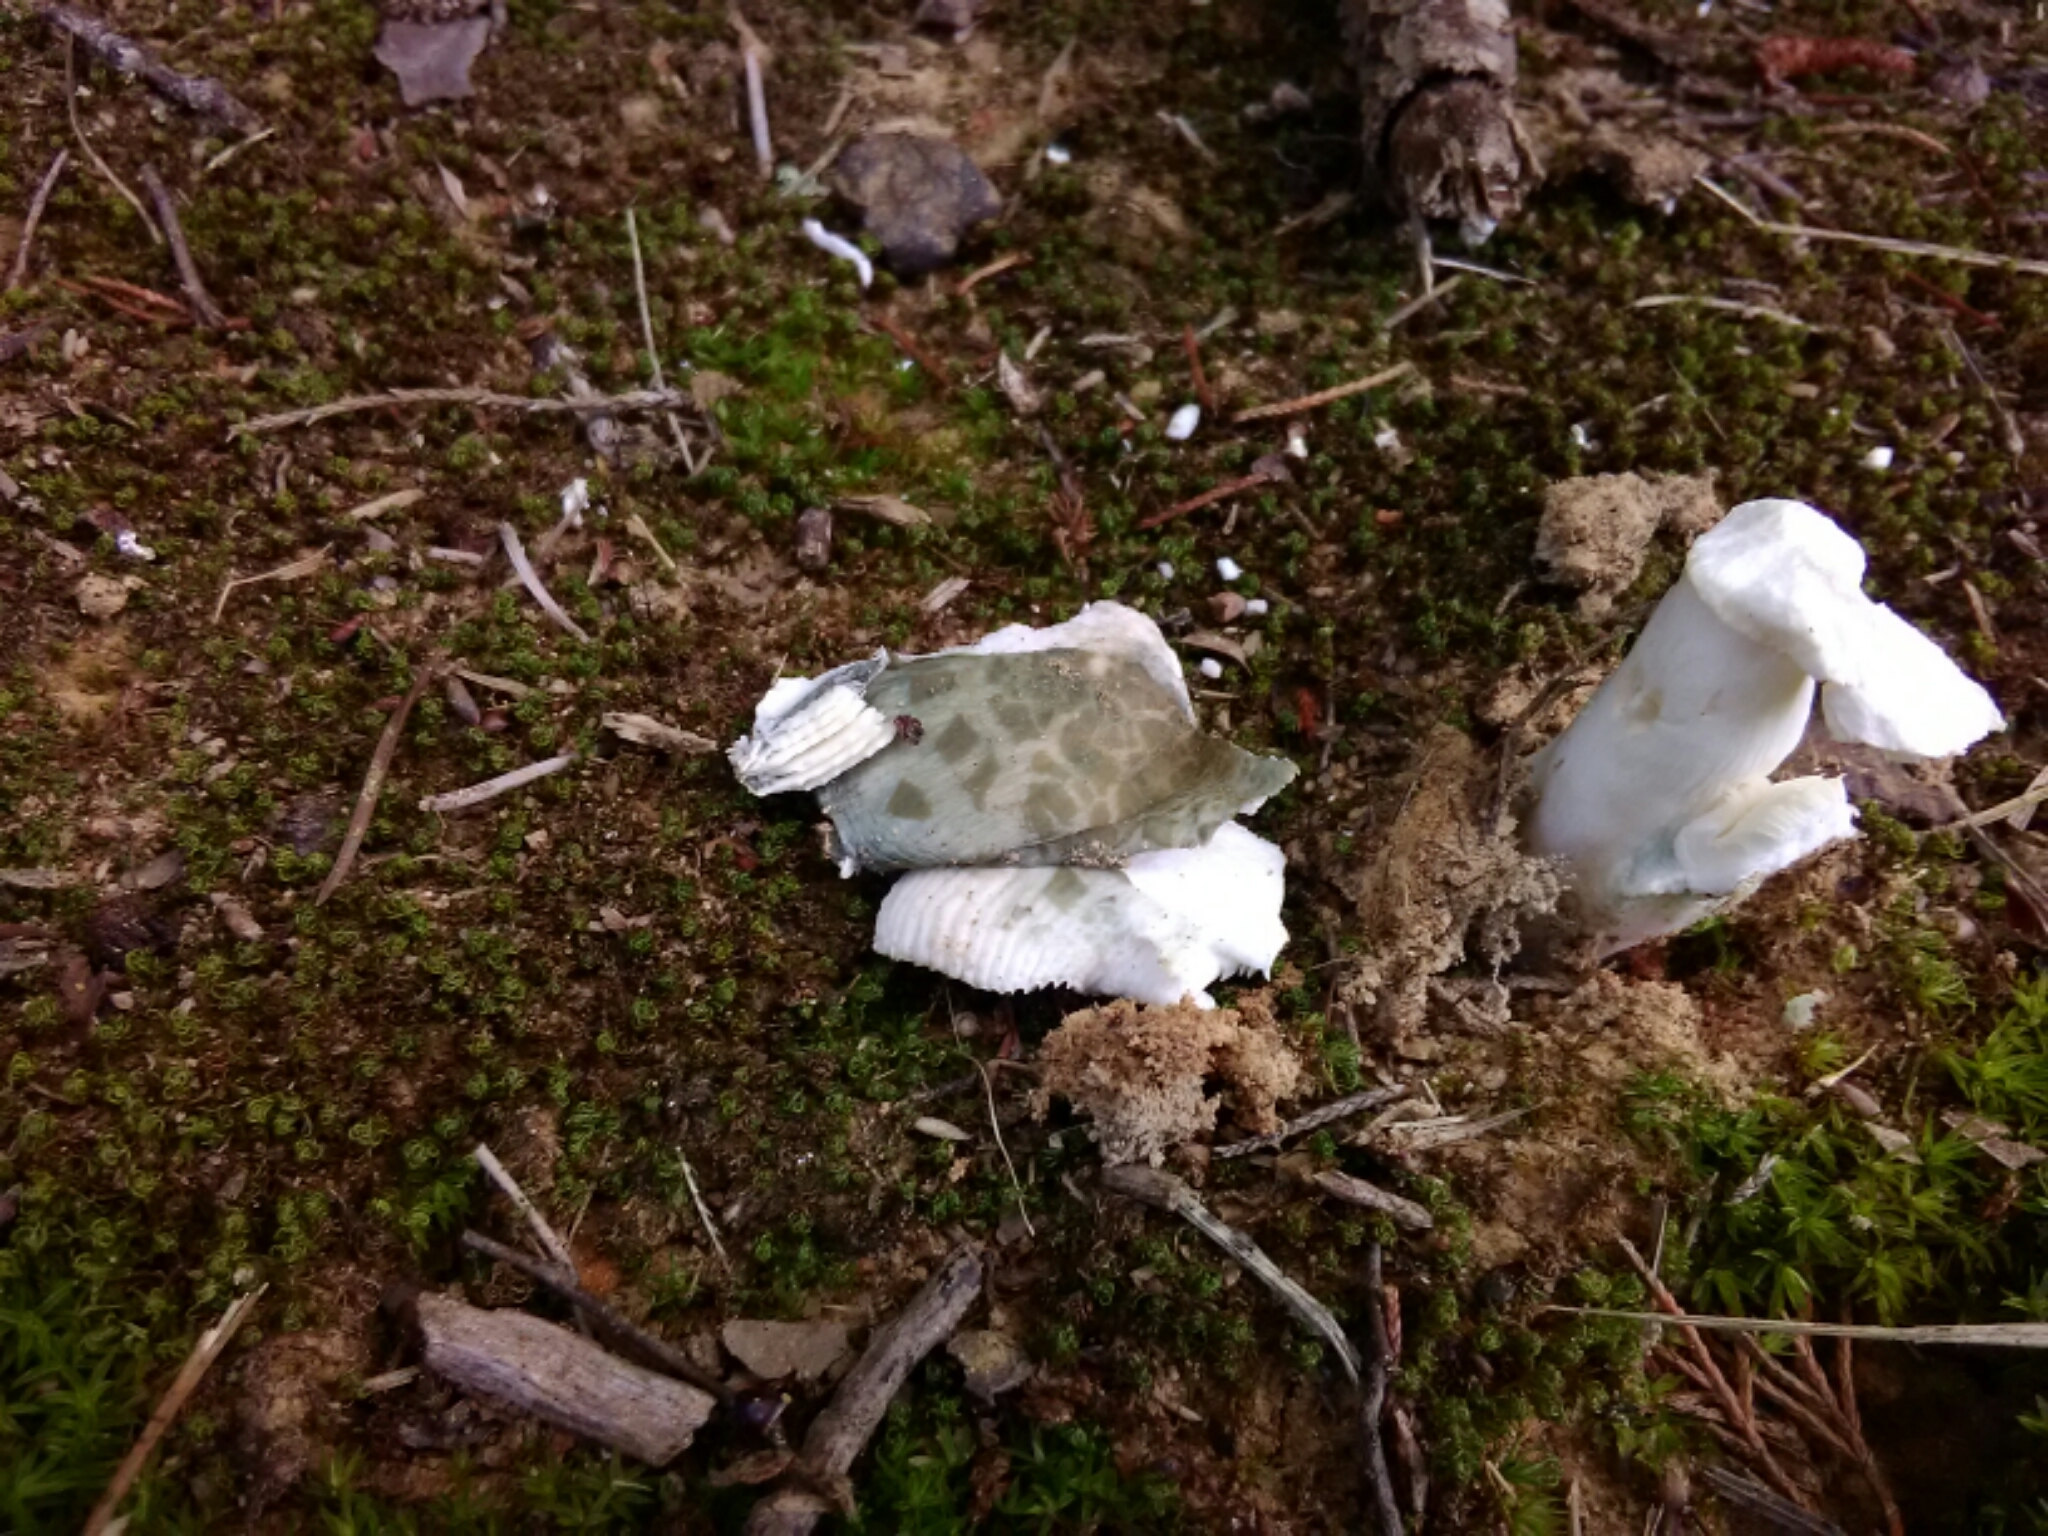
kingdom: Fungi
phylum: Basidiomycota
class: Agaricomycetes
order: Russulales
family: Russulaceae
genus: Russula
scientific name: Russula parvovirescens
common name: Blue-green cracking russula
